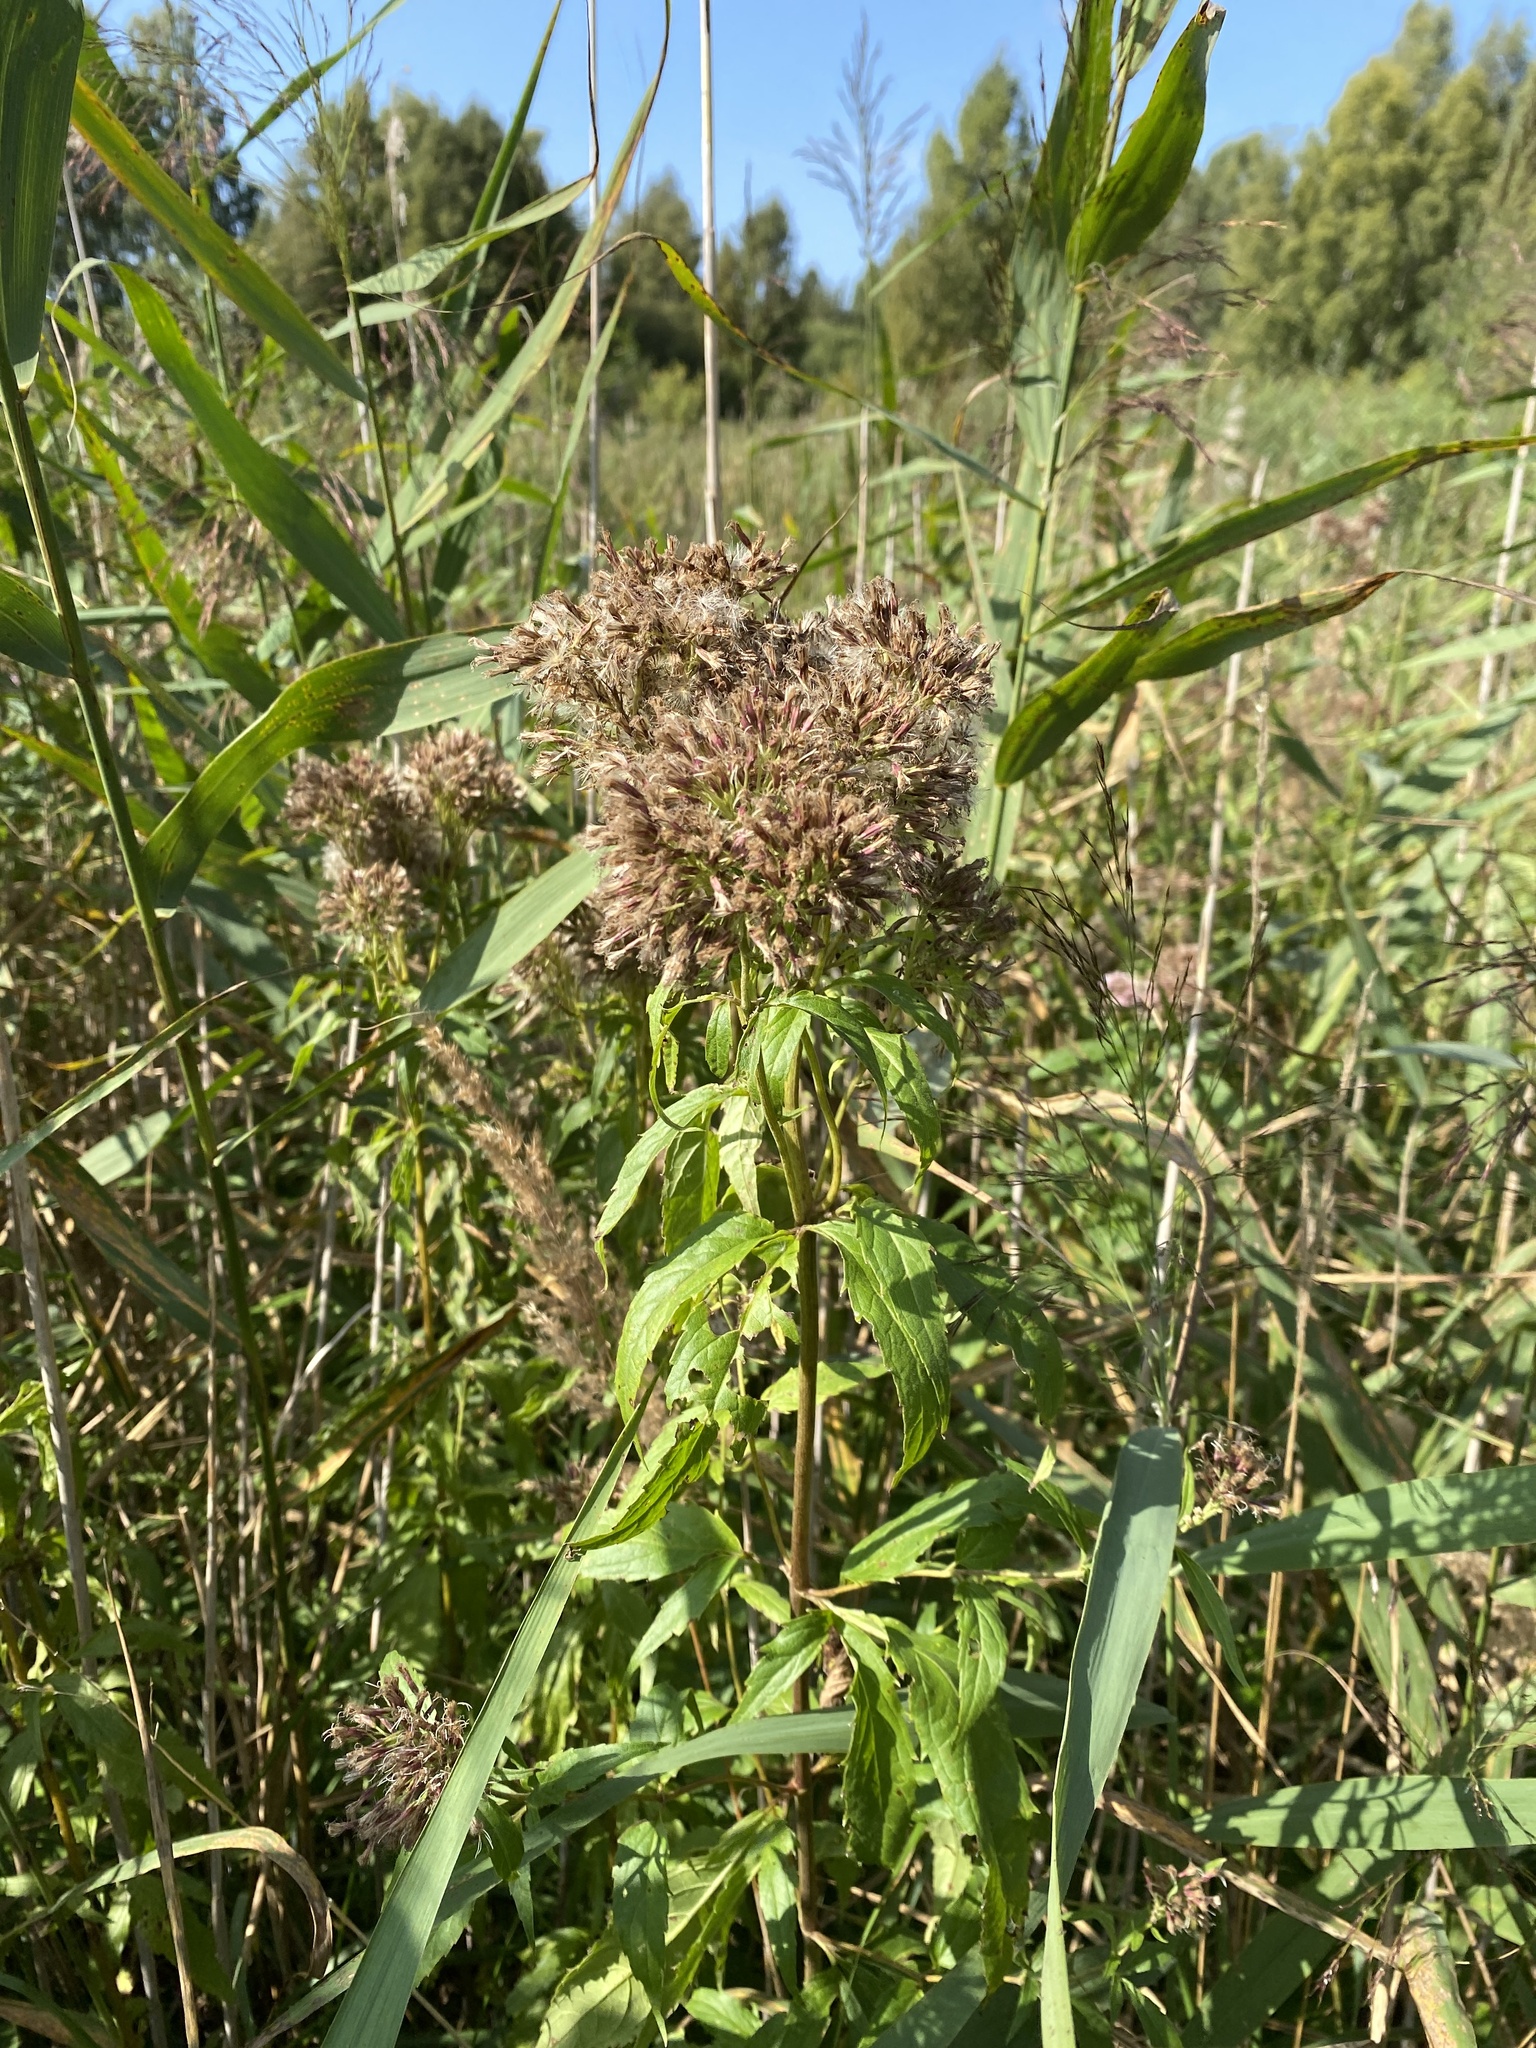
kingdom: Plantae
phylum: Tracheophyta
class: Magnoliopsida
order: Asterales
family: Asteraceae
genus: Eupatorium
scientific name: Eupatorium cannabinum
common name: Hemp-agrimony
